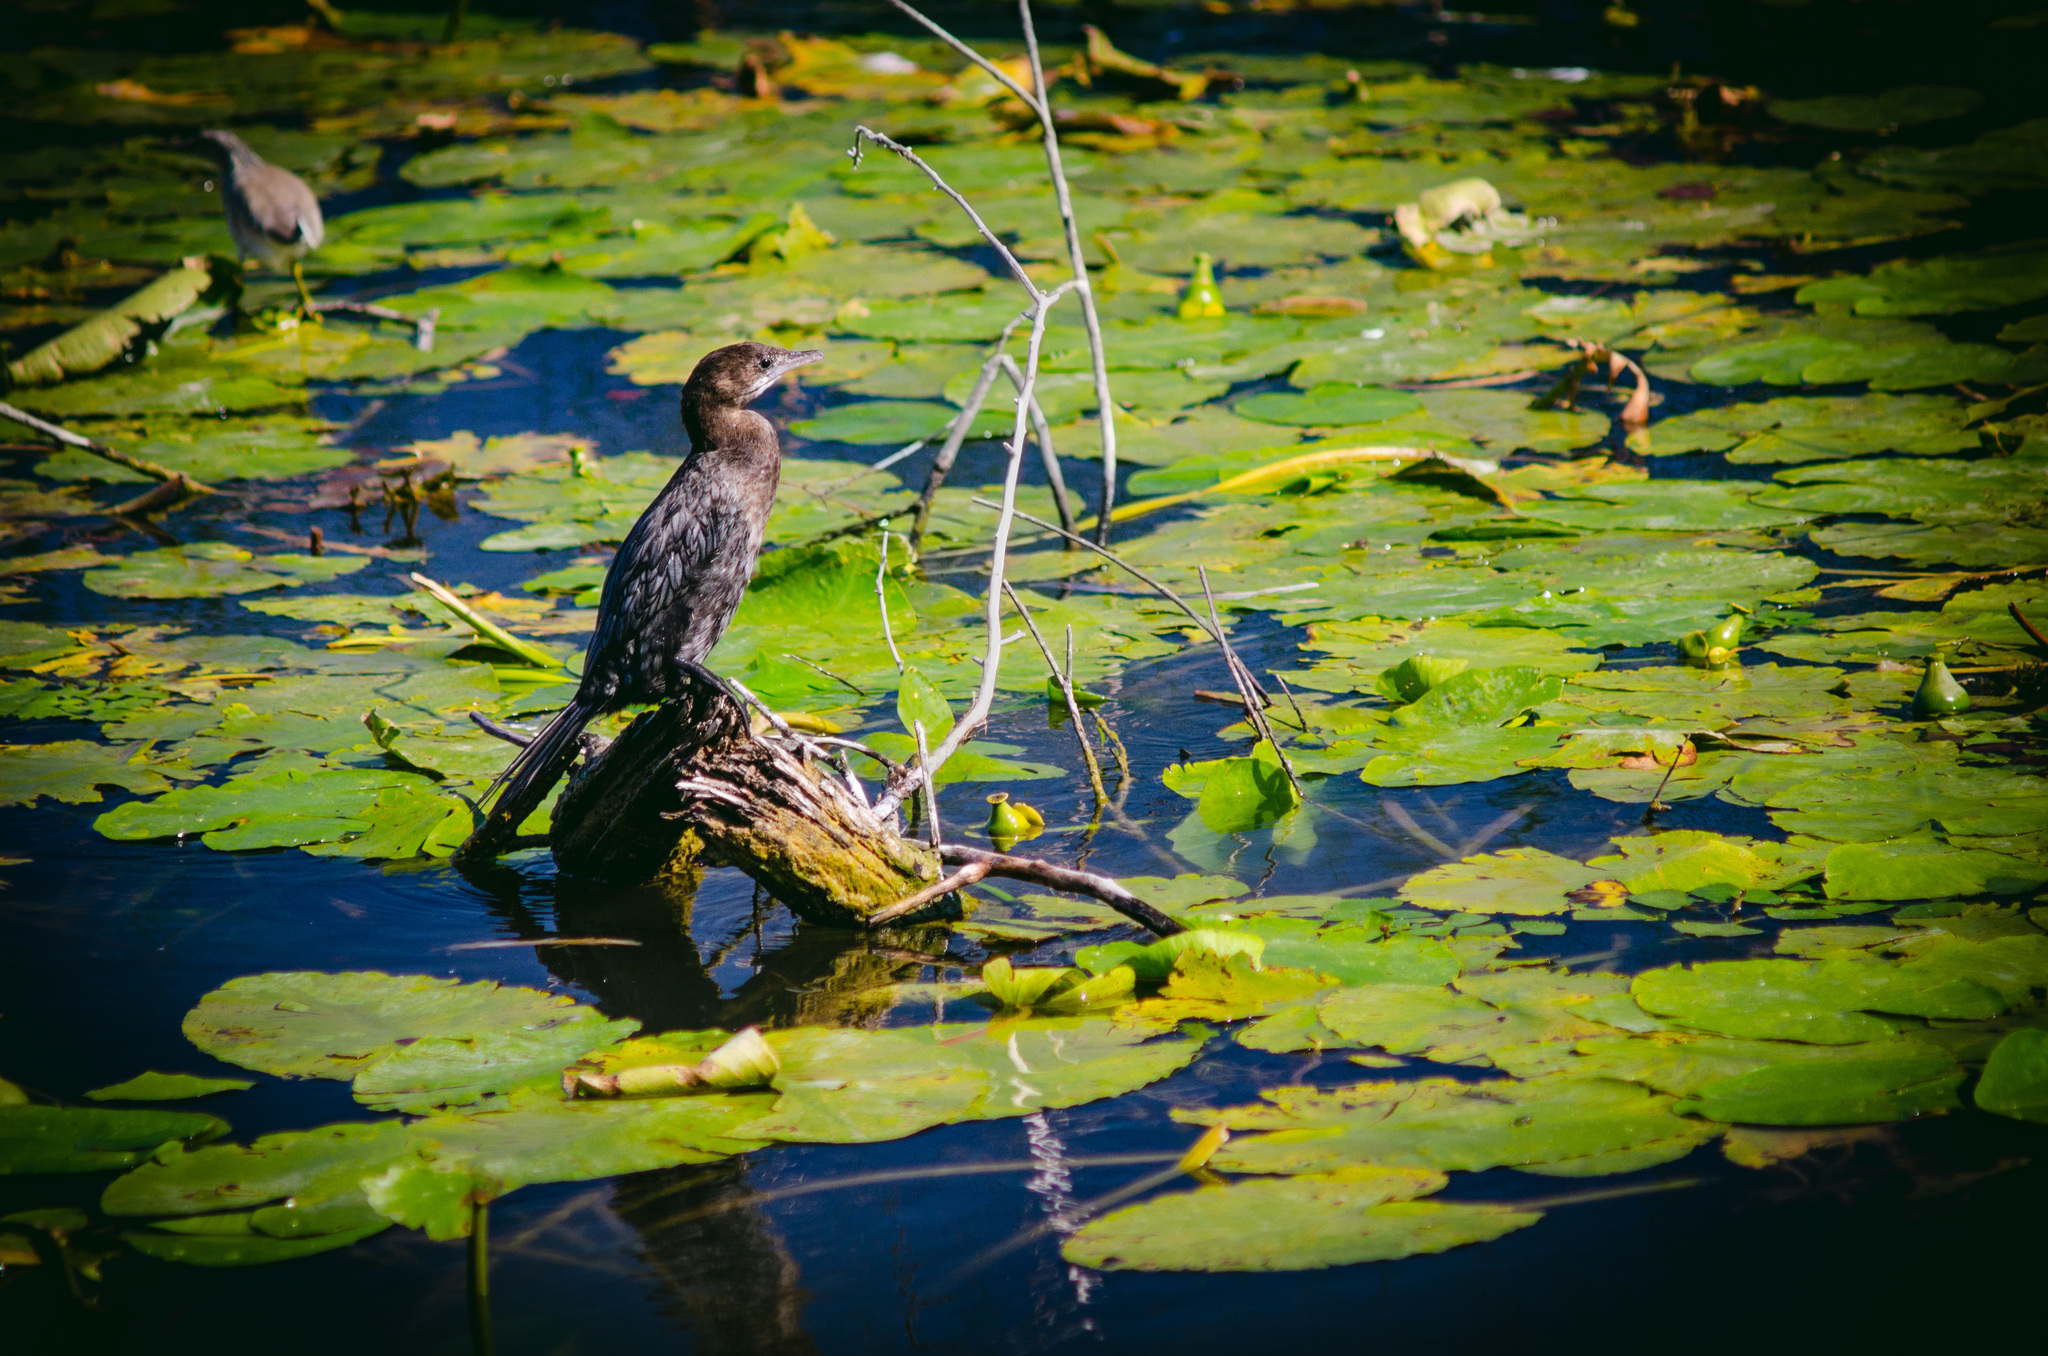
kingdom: Animalia
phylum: Chordata
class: Aves
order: Suliformes
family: Phalacrocoracidae
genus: Microcarbo
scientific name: Microcarbo pygmaeus
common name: Pygmy cormorant
